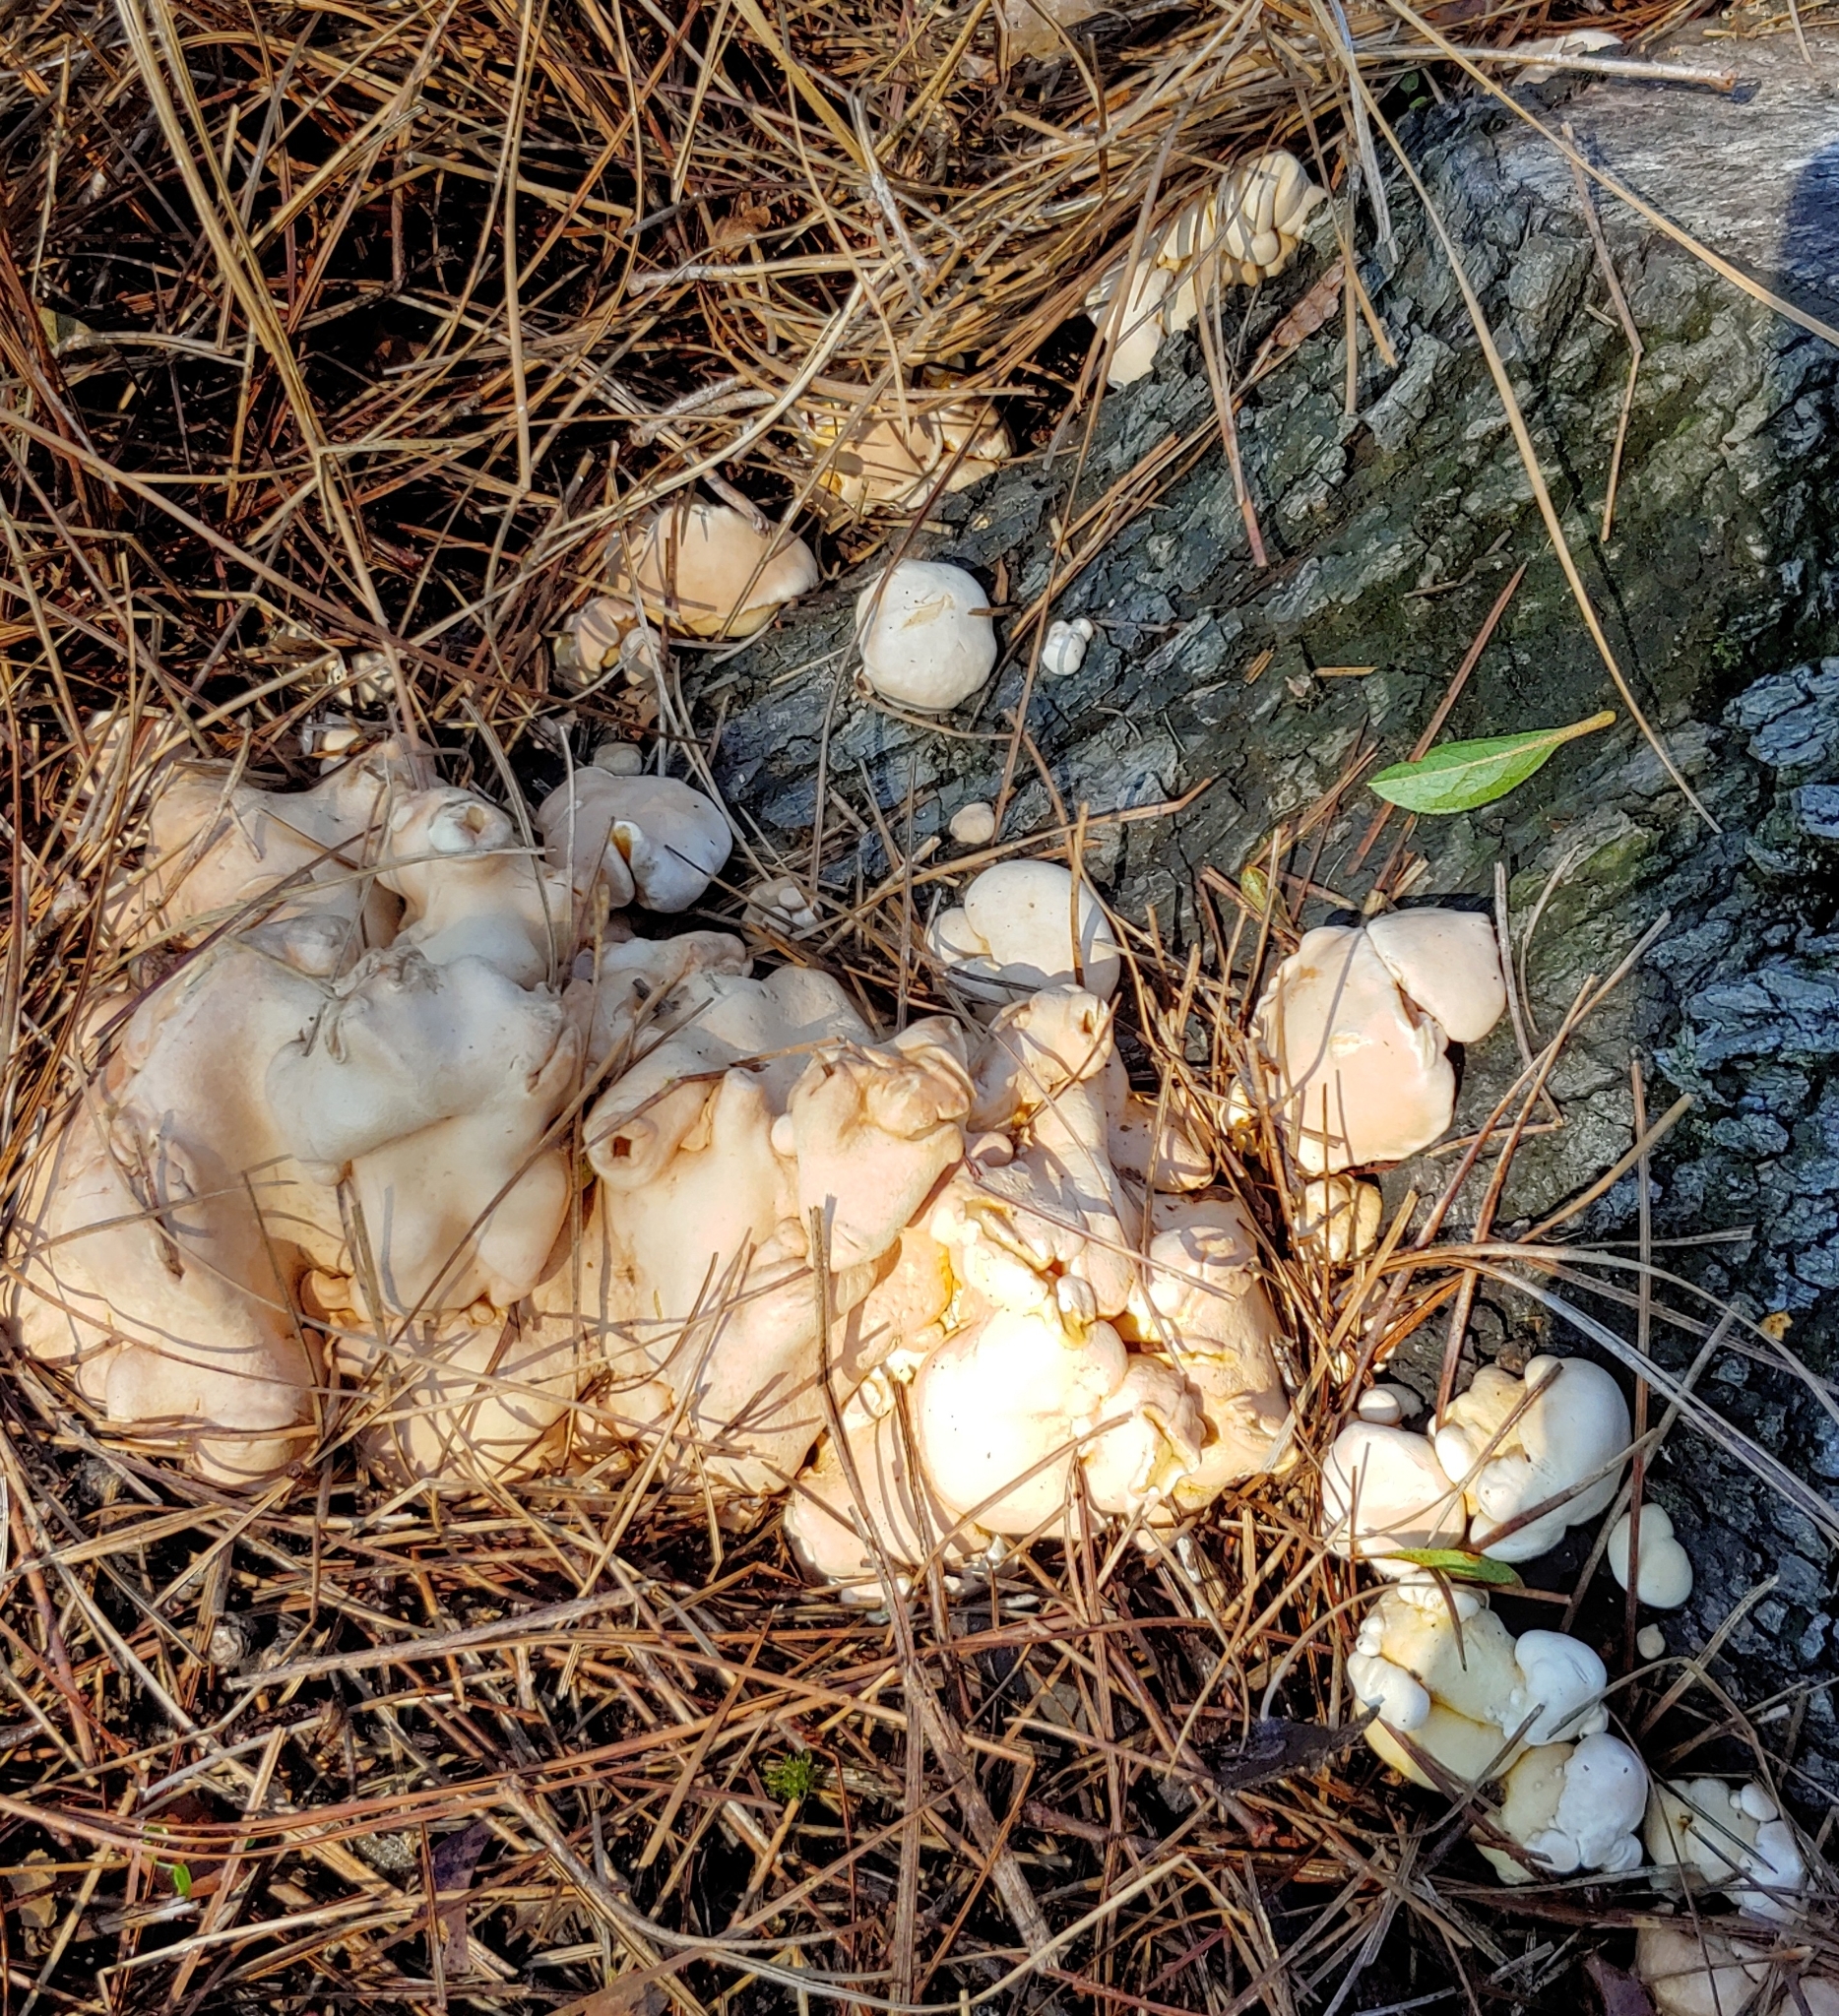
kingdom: Fungi
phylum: Ascomycota
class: Sordariomycetes
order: Hypocreales
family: Hypocreaceae
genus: Trichoderma
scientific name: Trichoderma peltatum
